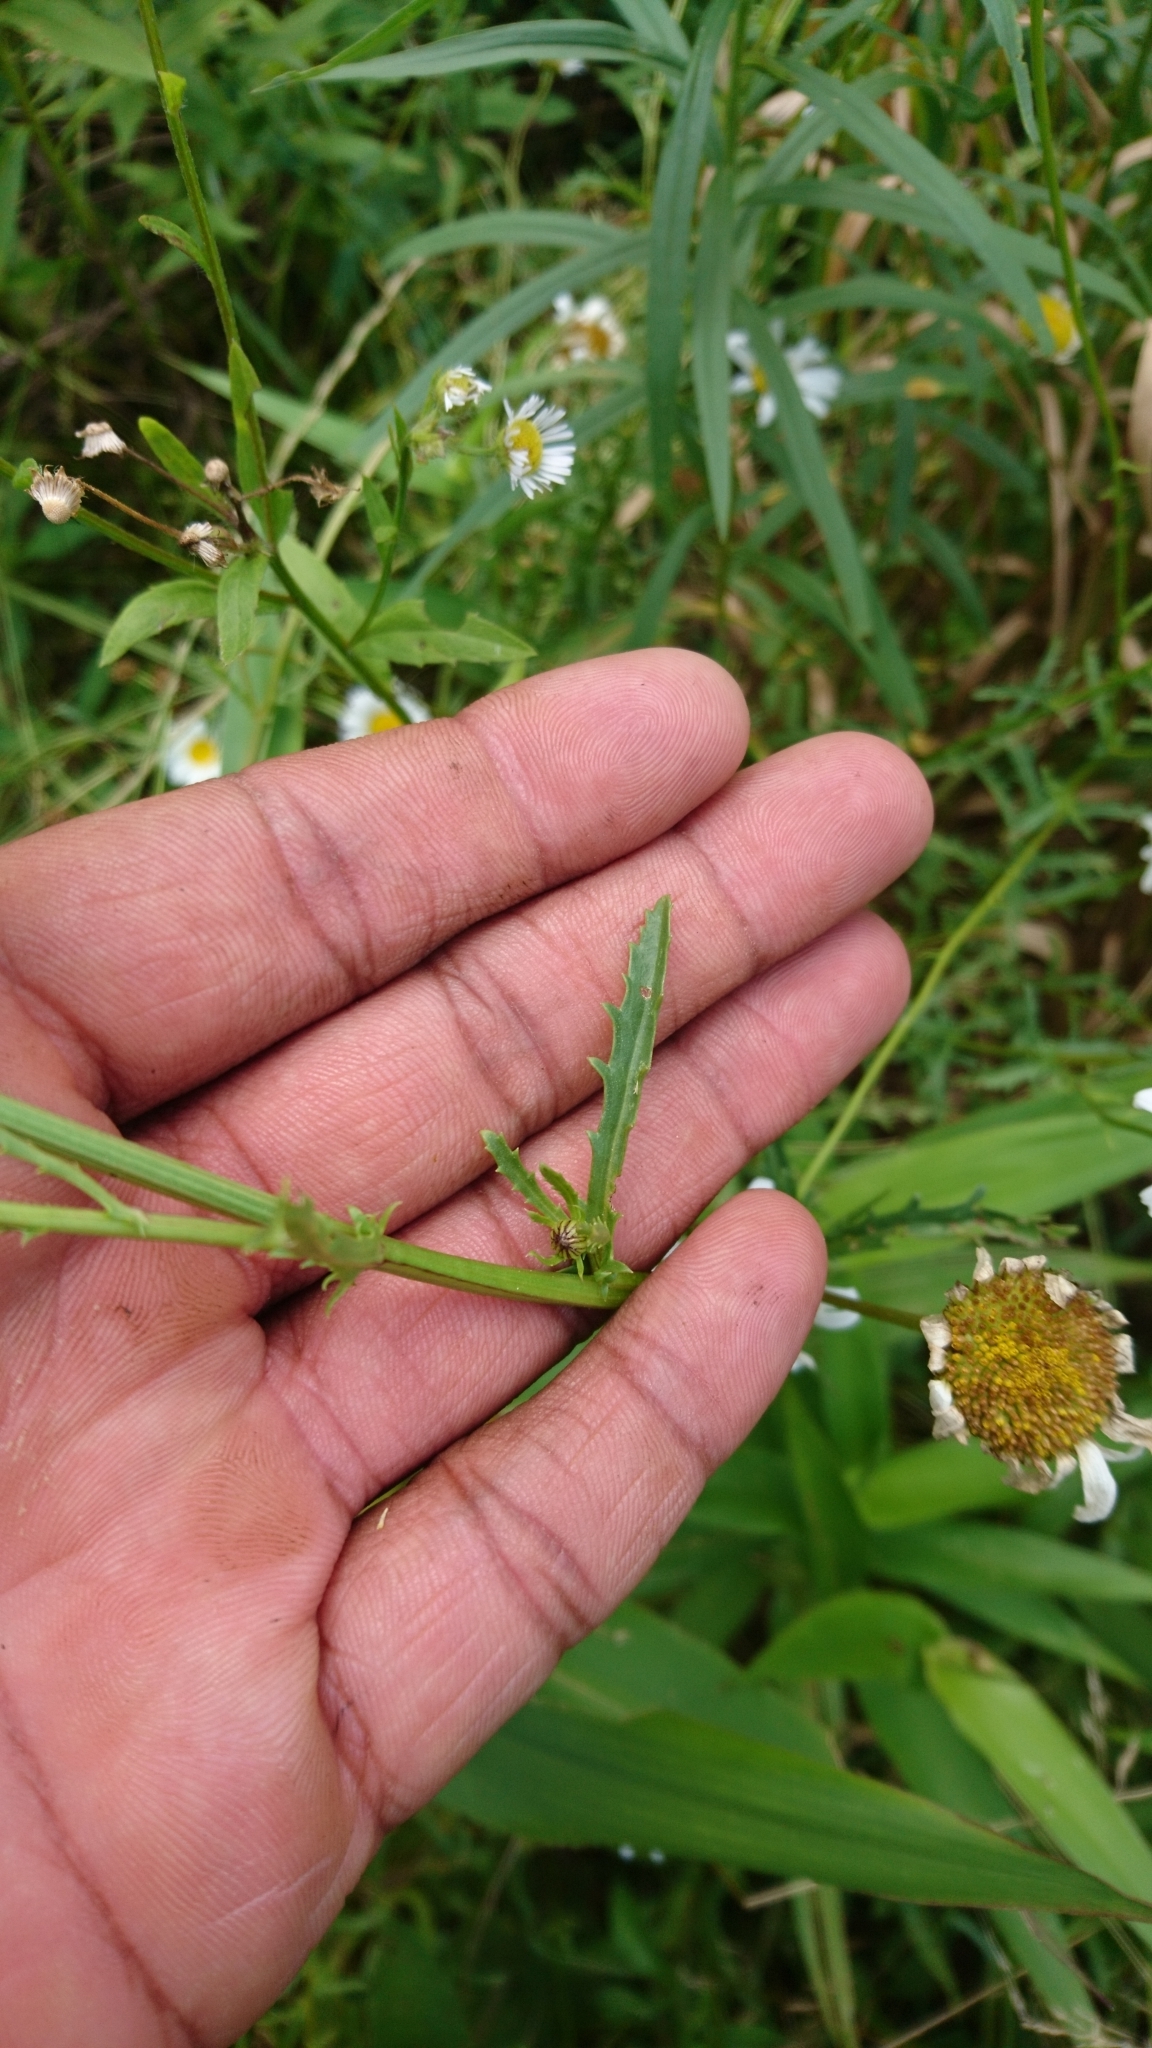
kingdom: Plantae
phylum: Tracheophyta
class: Magnoliopsida
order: Asterales
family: Asteraceae
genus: Leucanthemum
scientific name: Leucanthemum vulgare
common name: Oxeye daisy
